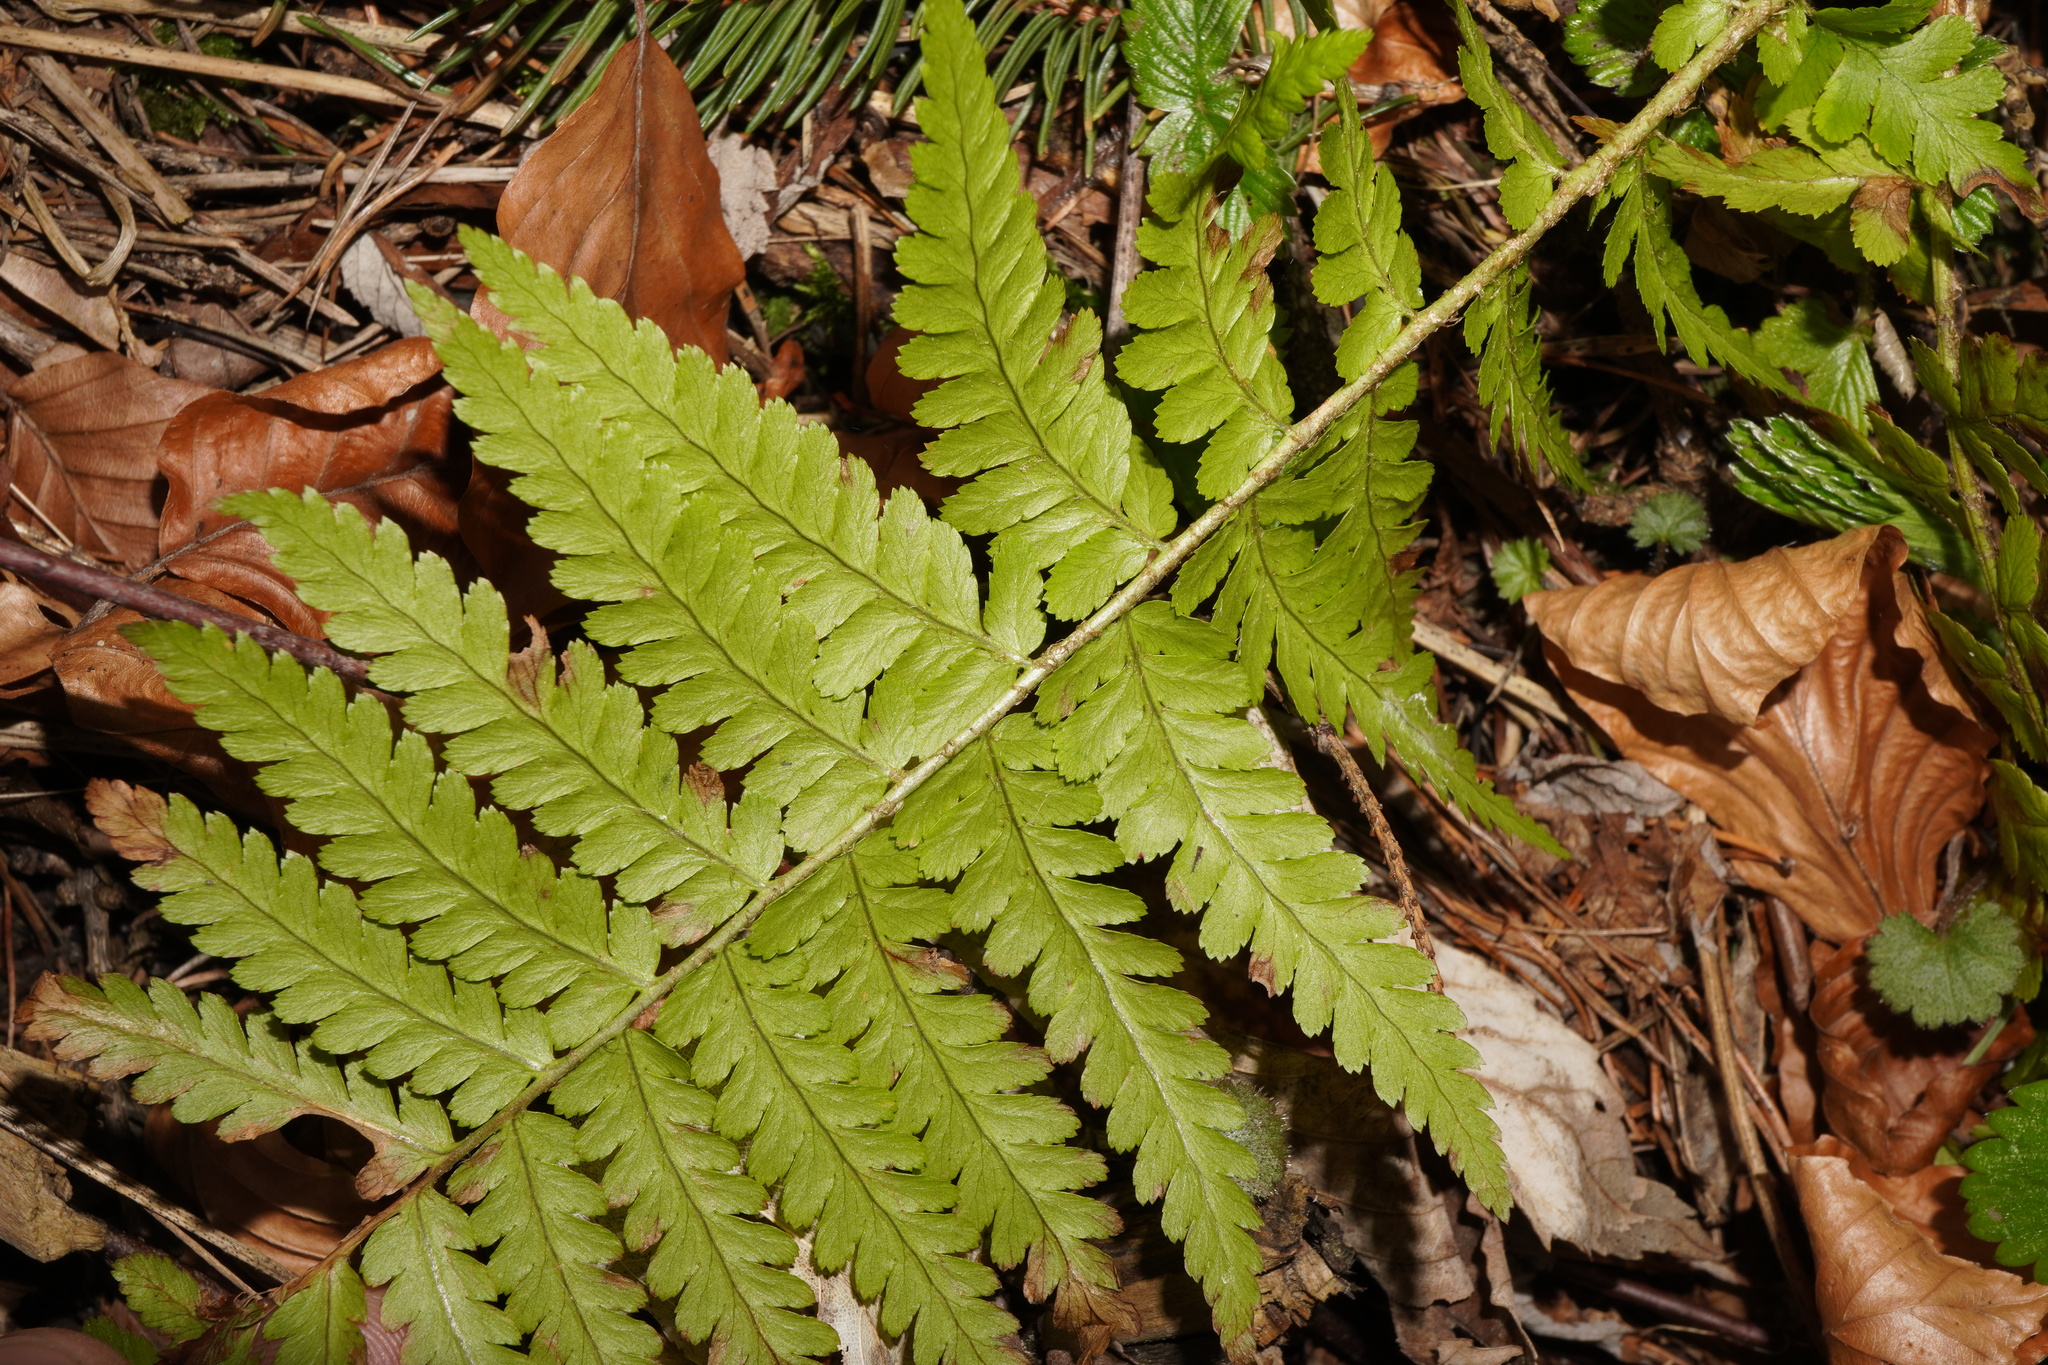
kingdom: Plantae
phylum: Tracheophyta
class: Polypodiopsida
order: Polypodiales
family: Dryopteridaceae
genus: Dryopteris
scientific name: Dryopteris filix-mas
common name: Male fern
